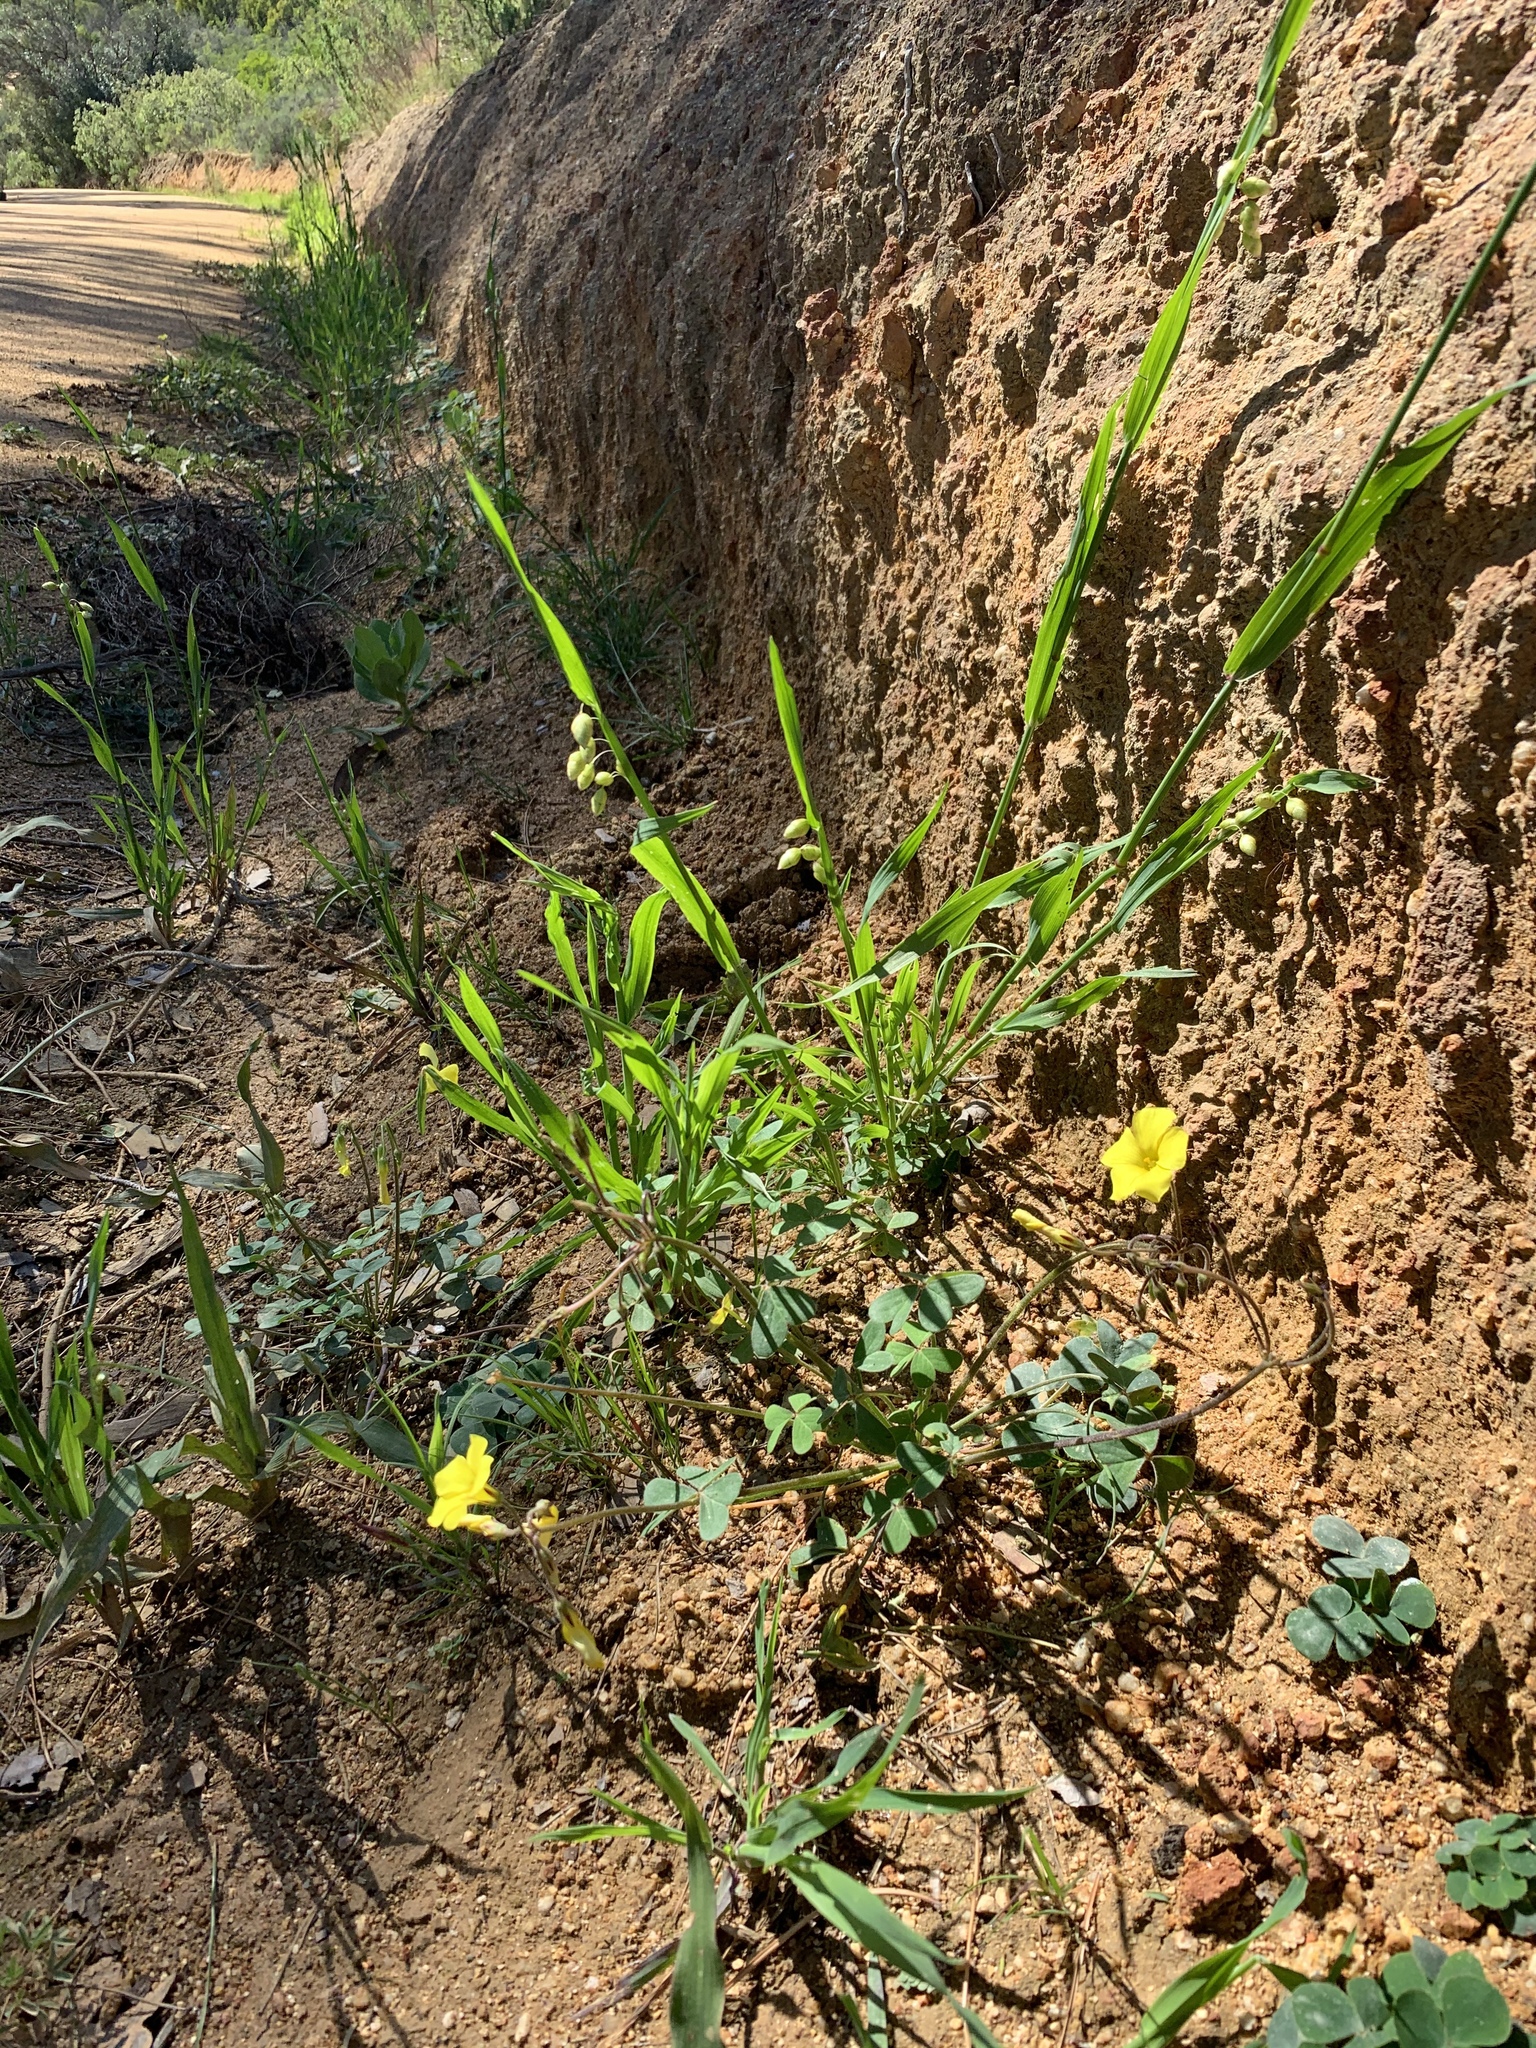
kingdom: Plantae
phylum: Tracheophyta
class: Magnoliopsida
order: Oxalidales
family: Oxalidaceae
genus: Oxalis
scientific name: Oxalis pes-caprae
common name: Bermuda-buttercup
